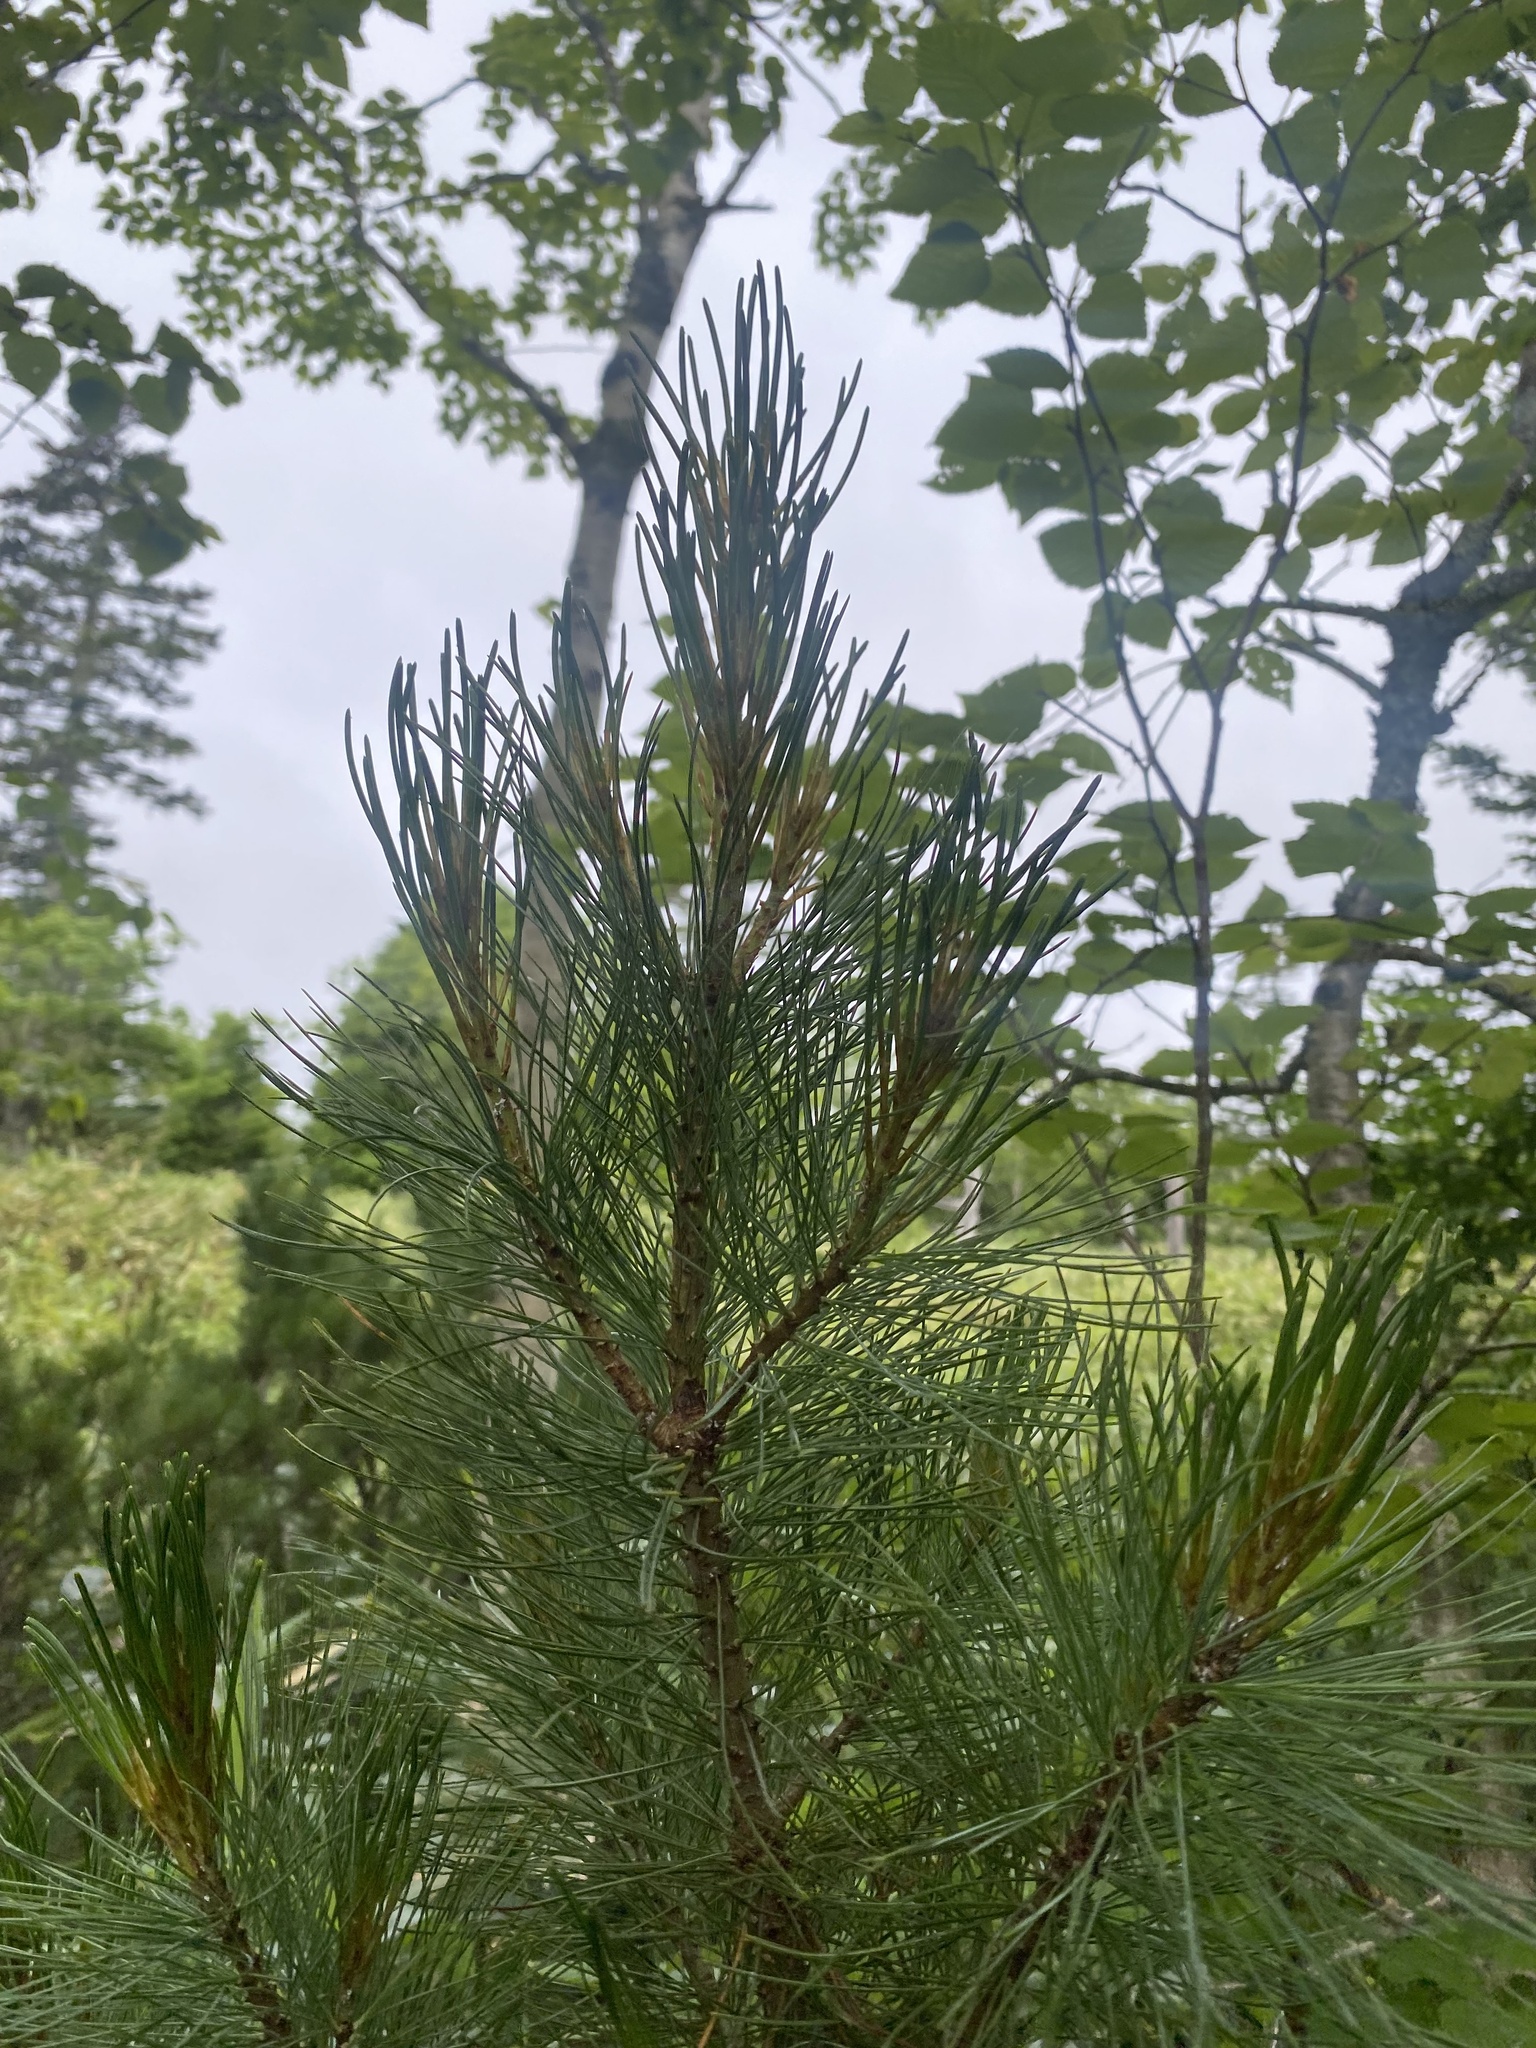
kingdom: Plantae
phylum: Tracheophyta
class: Pinopsida
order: Pinales
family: Pinaceae
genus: Pinus
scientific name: Pinus pumila
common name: Dwarf siberian pine
